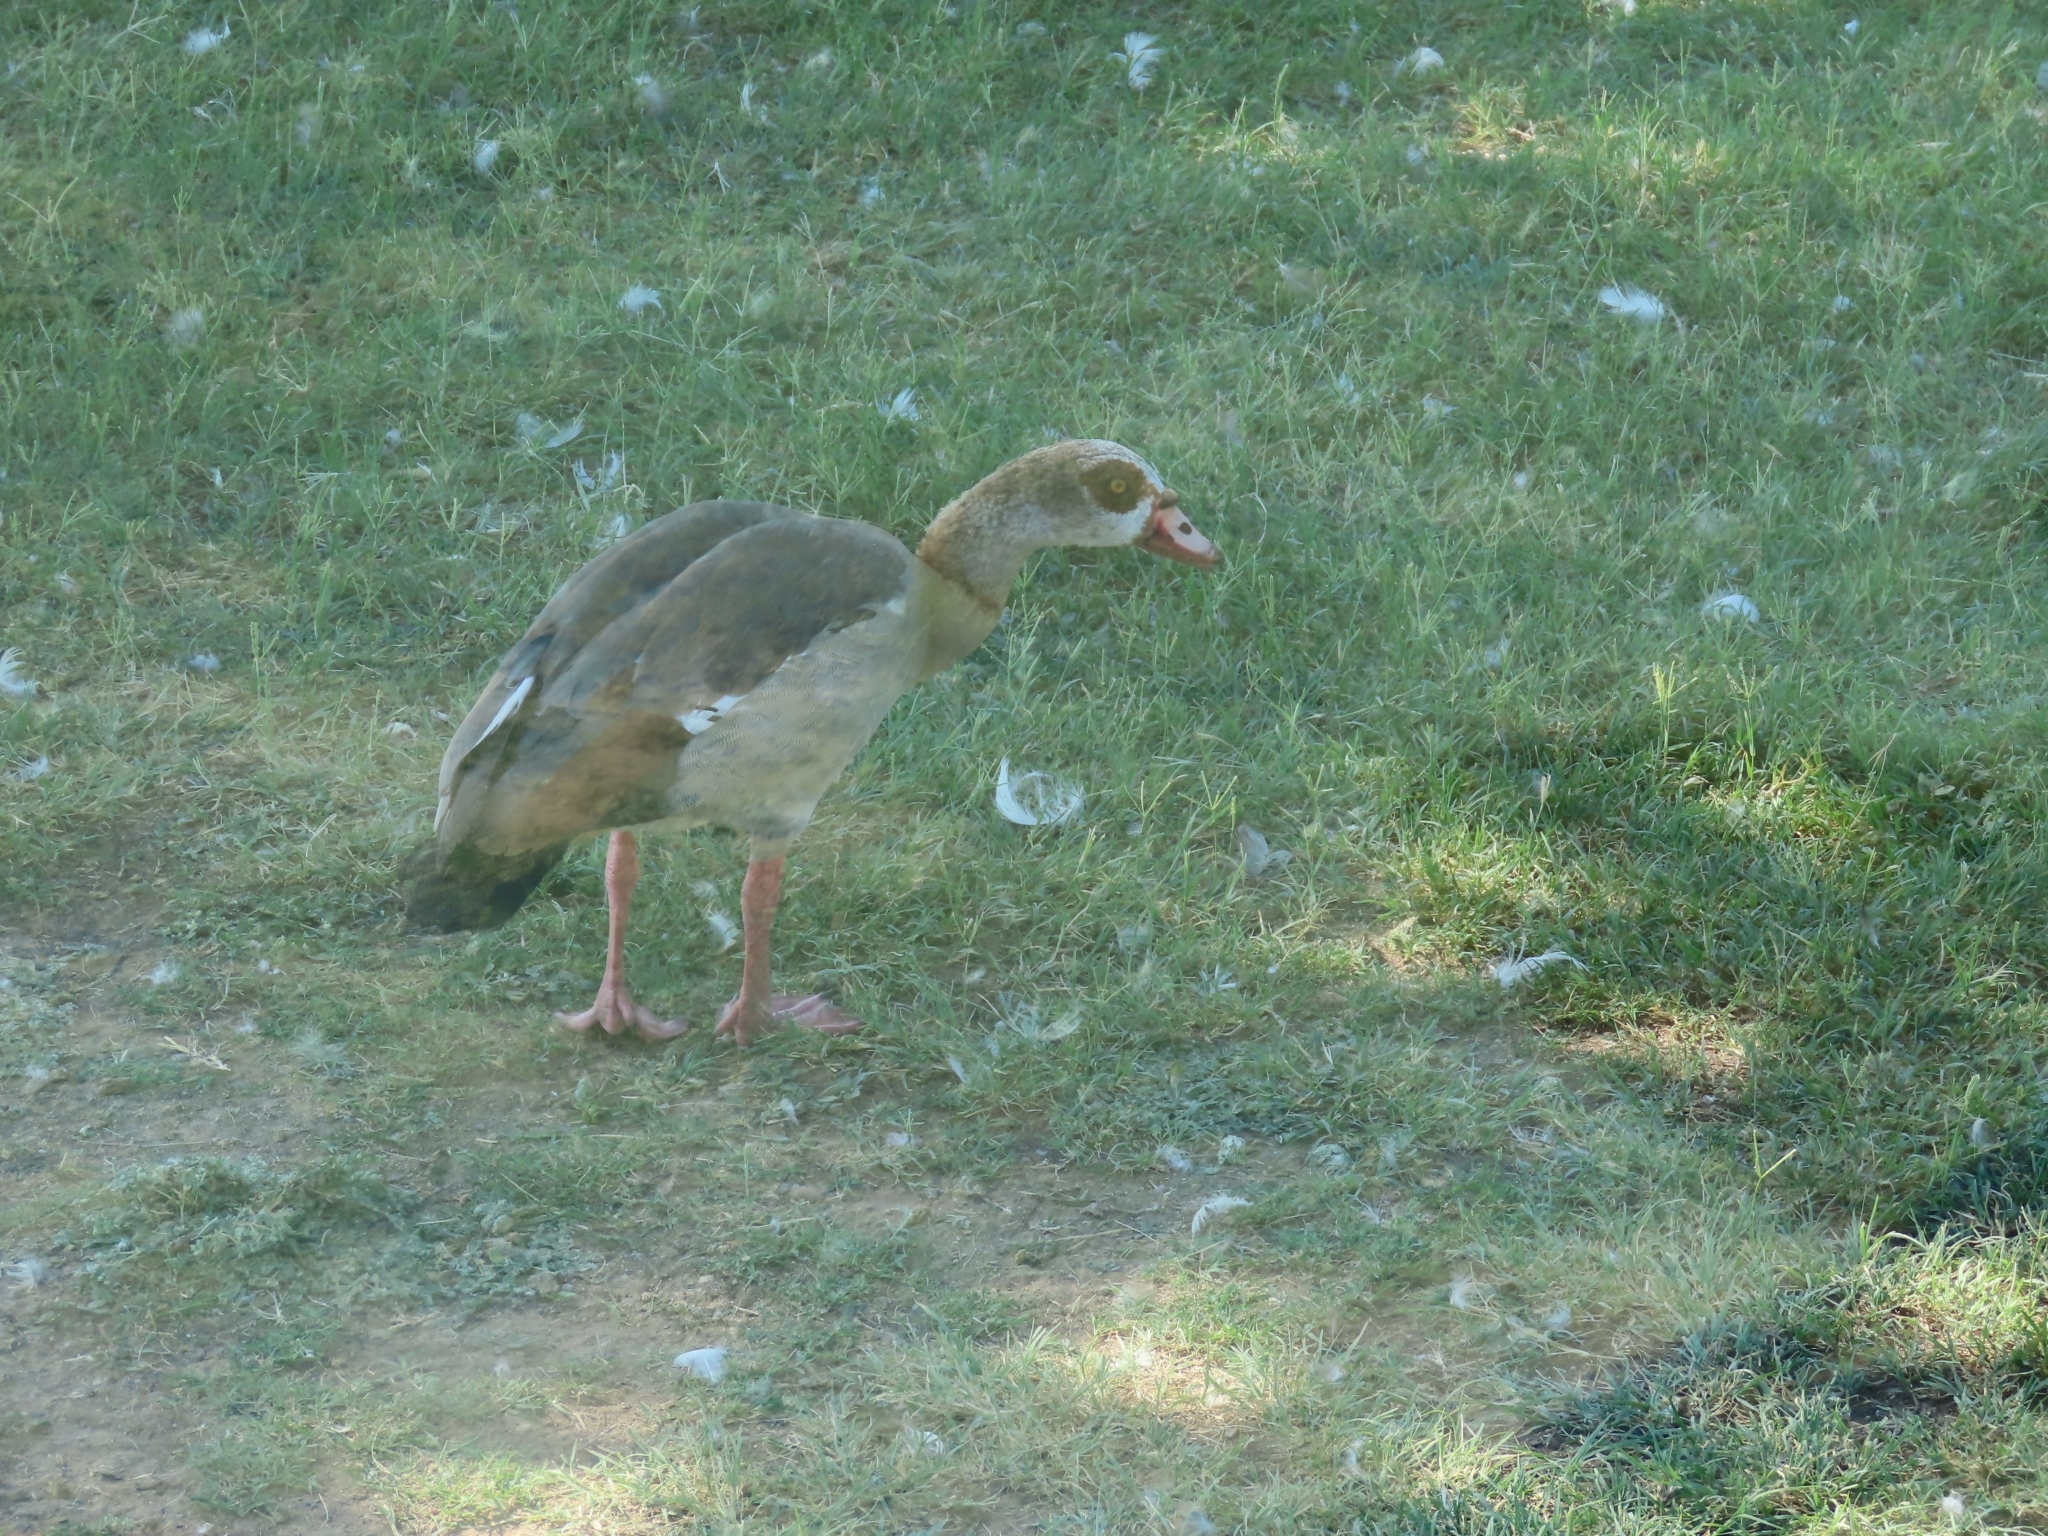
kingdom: Animalia
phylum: Chordata
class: Aves
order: Anseriformes
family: Anatidae
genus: Alopochen
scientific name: Alopochen aegyptiaca
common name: Egyptian goose
